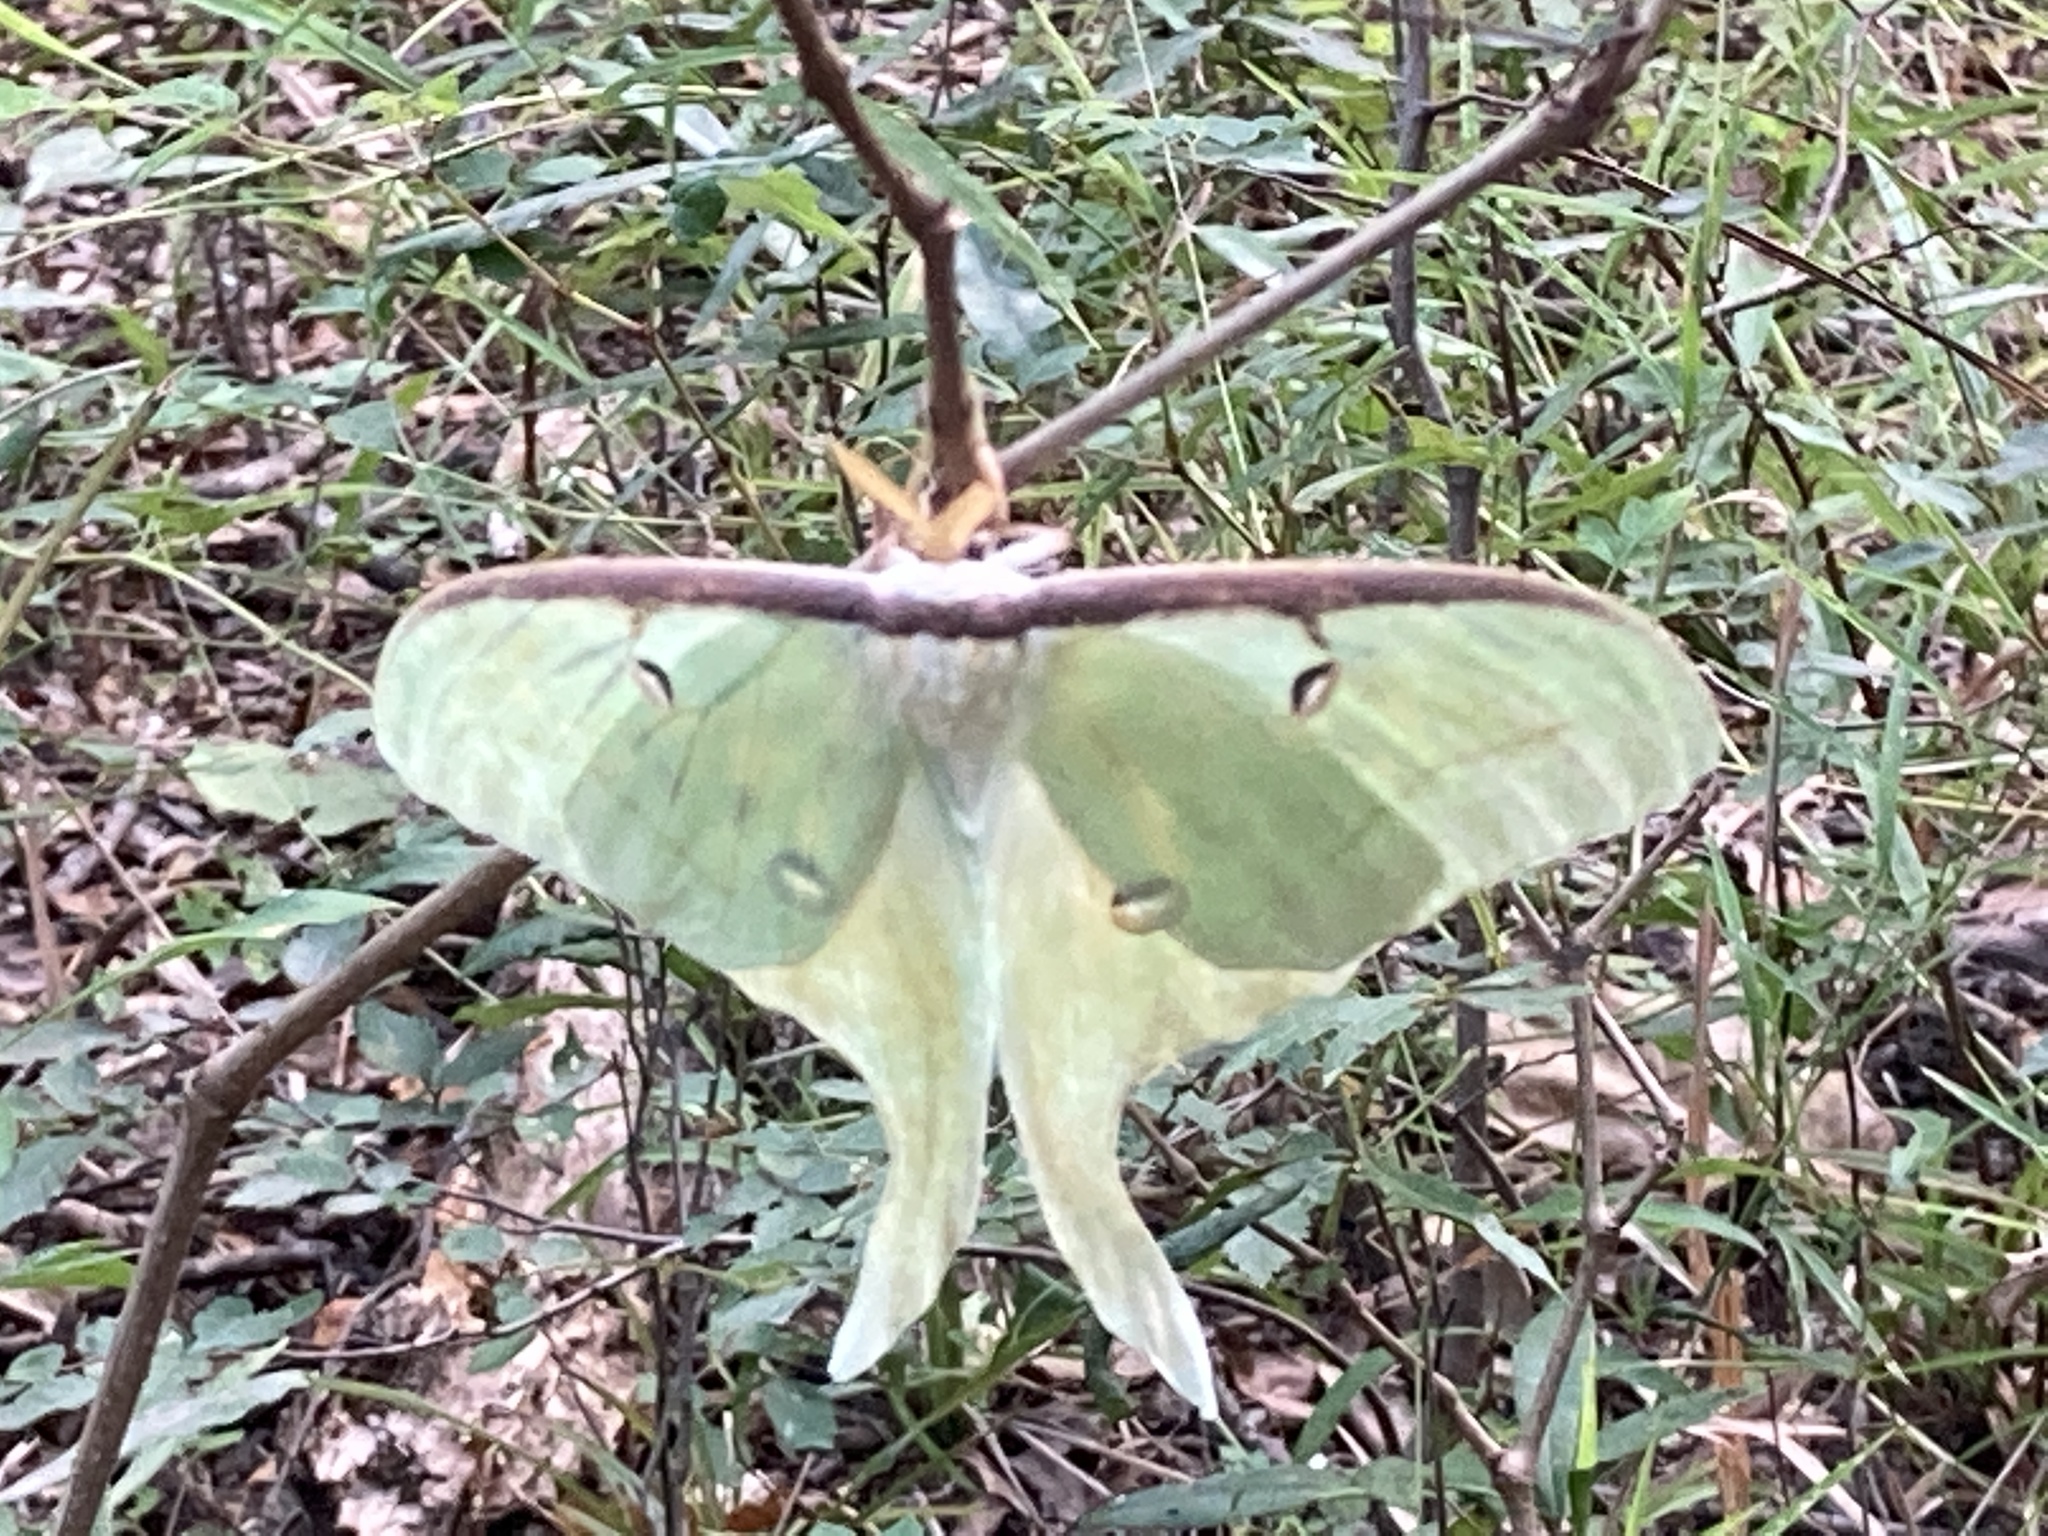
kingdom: Animalia
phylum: Arthropoda
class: Insecta
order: Lepidoptera
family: Saturniidae
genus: Actias
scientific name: Actias luna
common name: Luna moth
